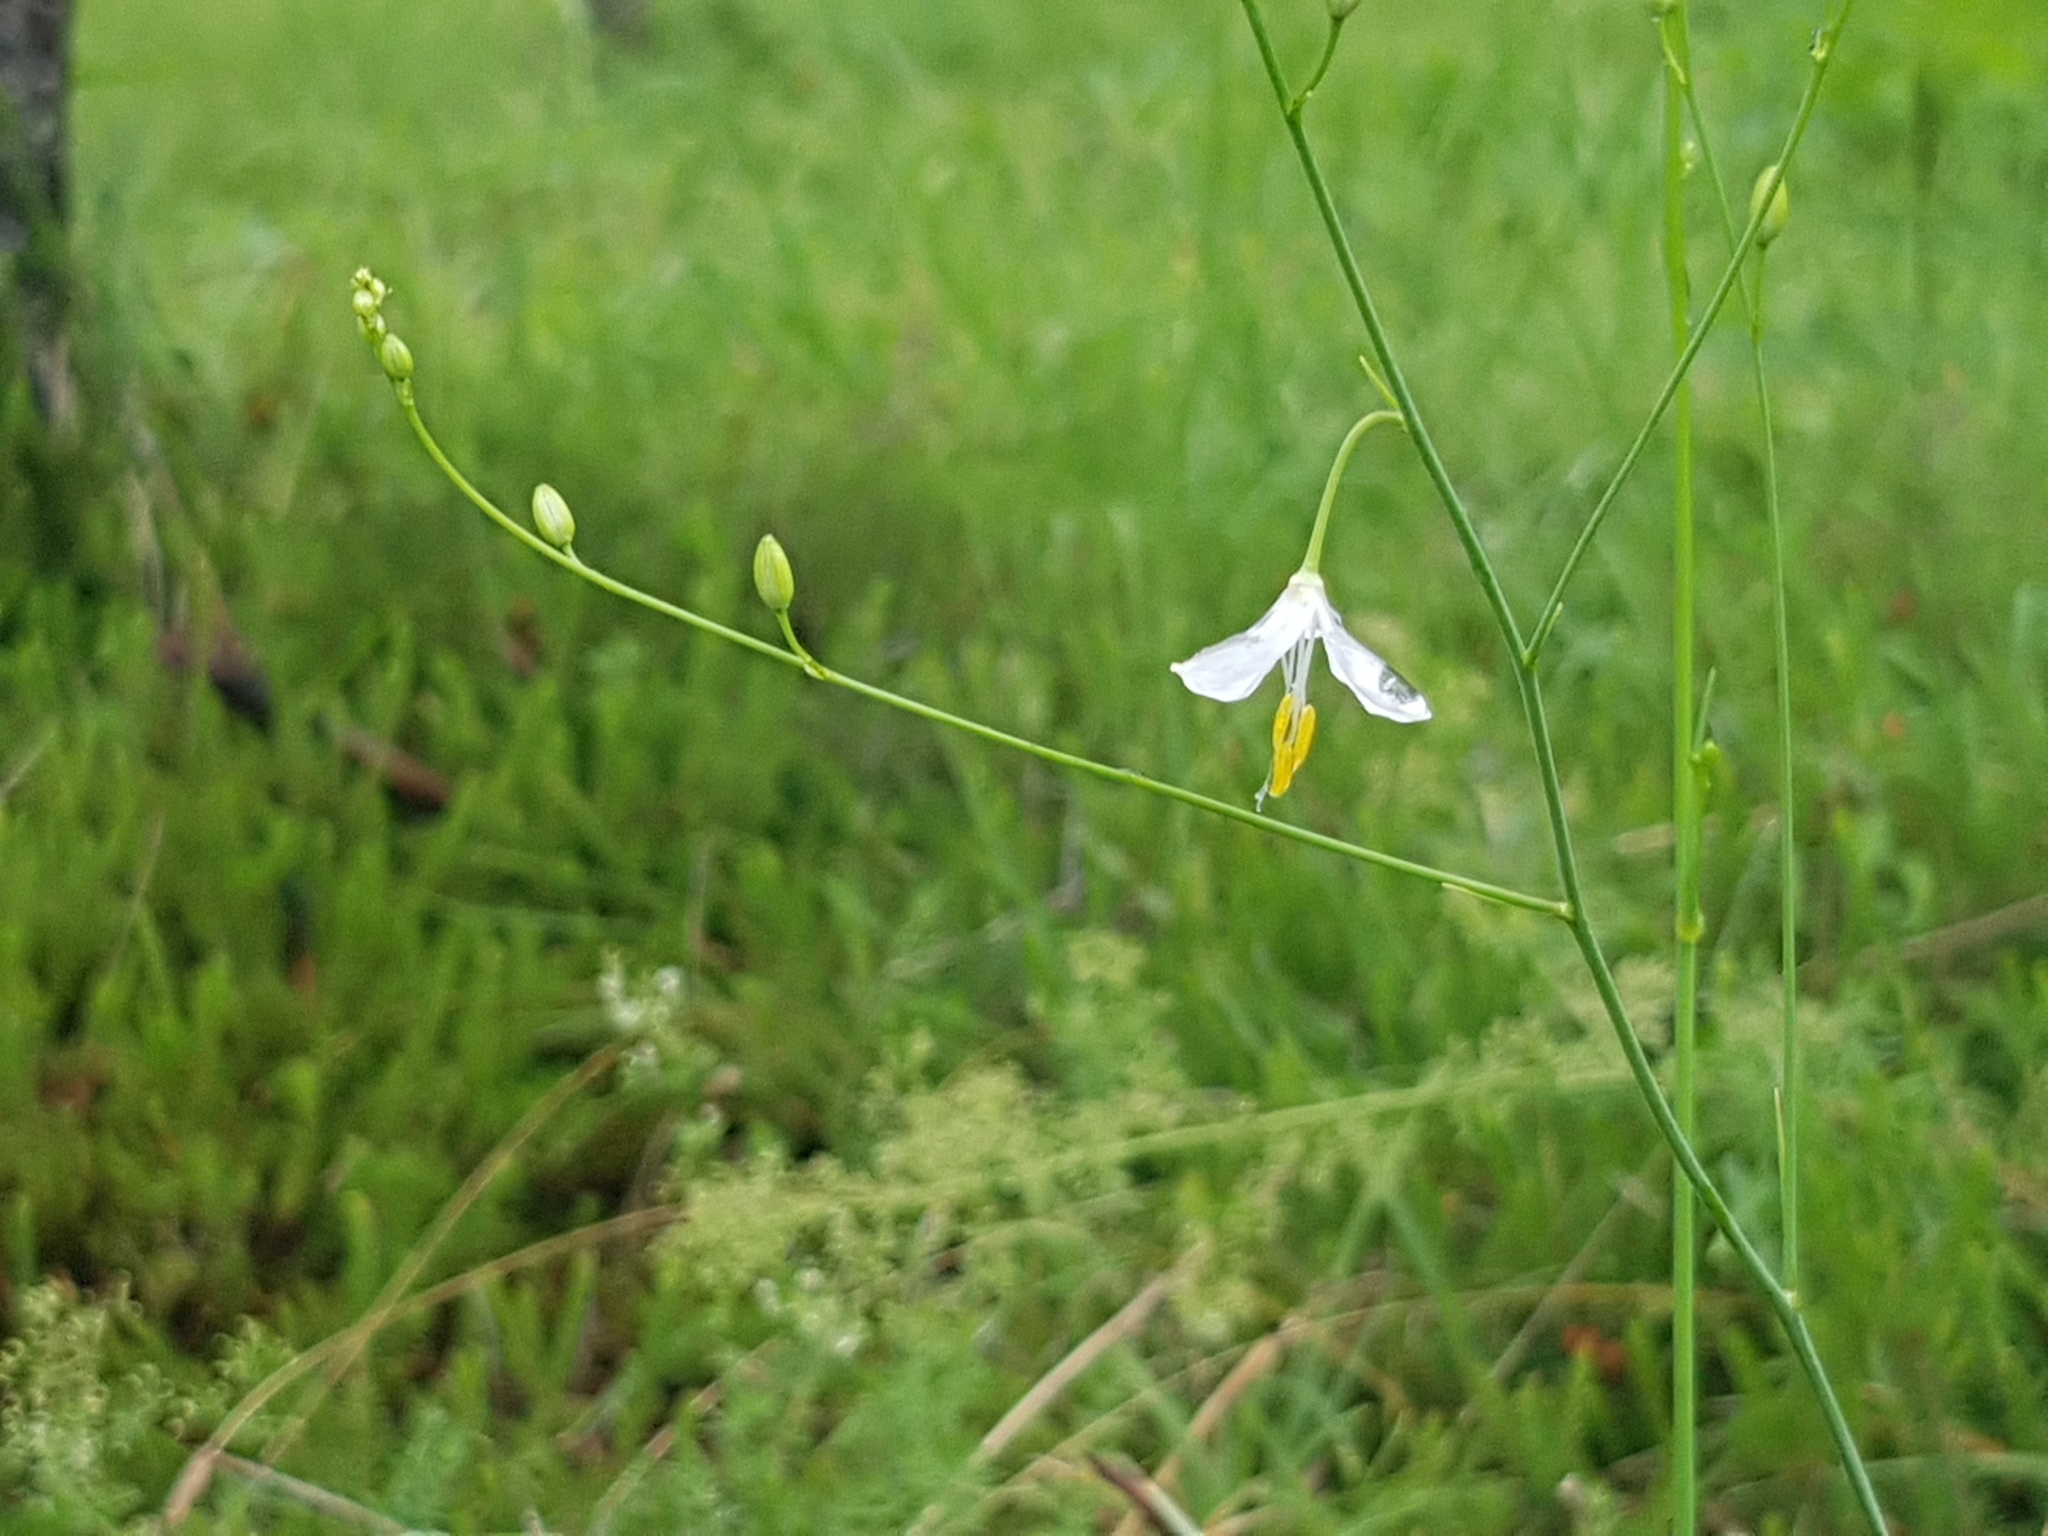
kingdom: Plantae
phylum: Tracheophyta
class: Liliopsida
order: Asparagales
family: Asparagaceae
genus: Anthericum
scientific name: Anthericum ramosum
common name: Branched st. bernard's-lily
